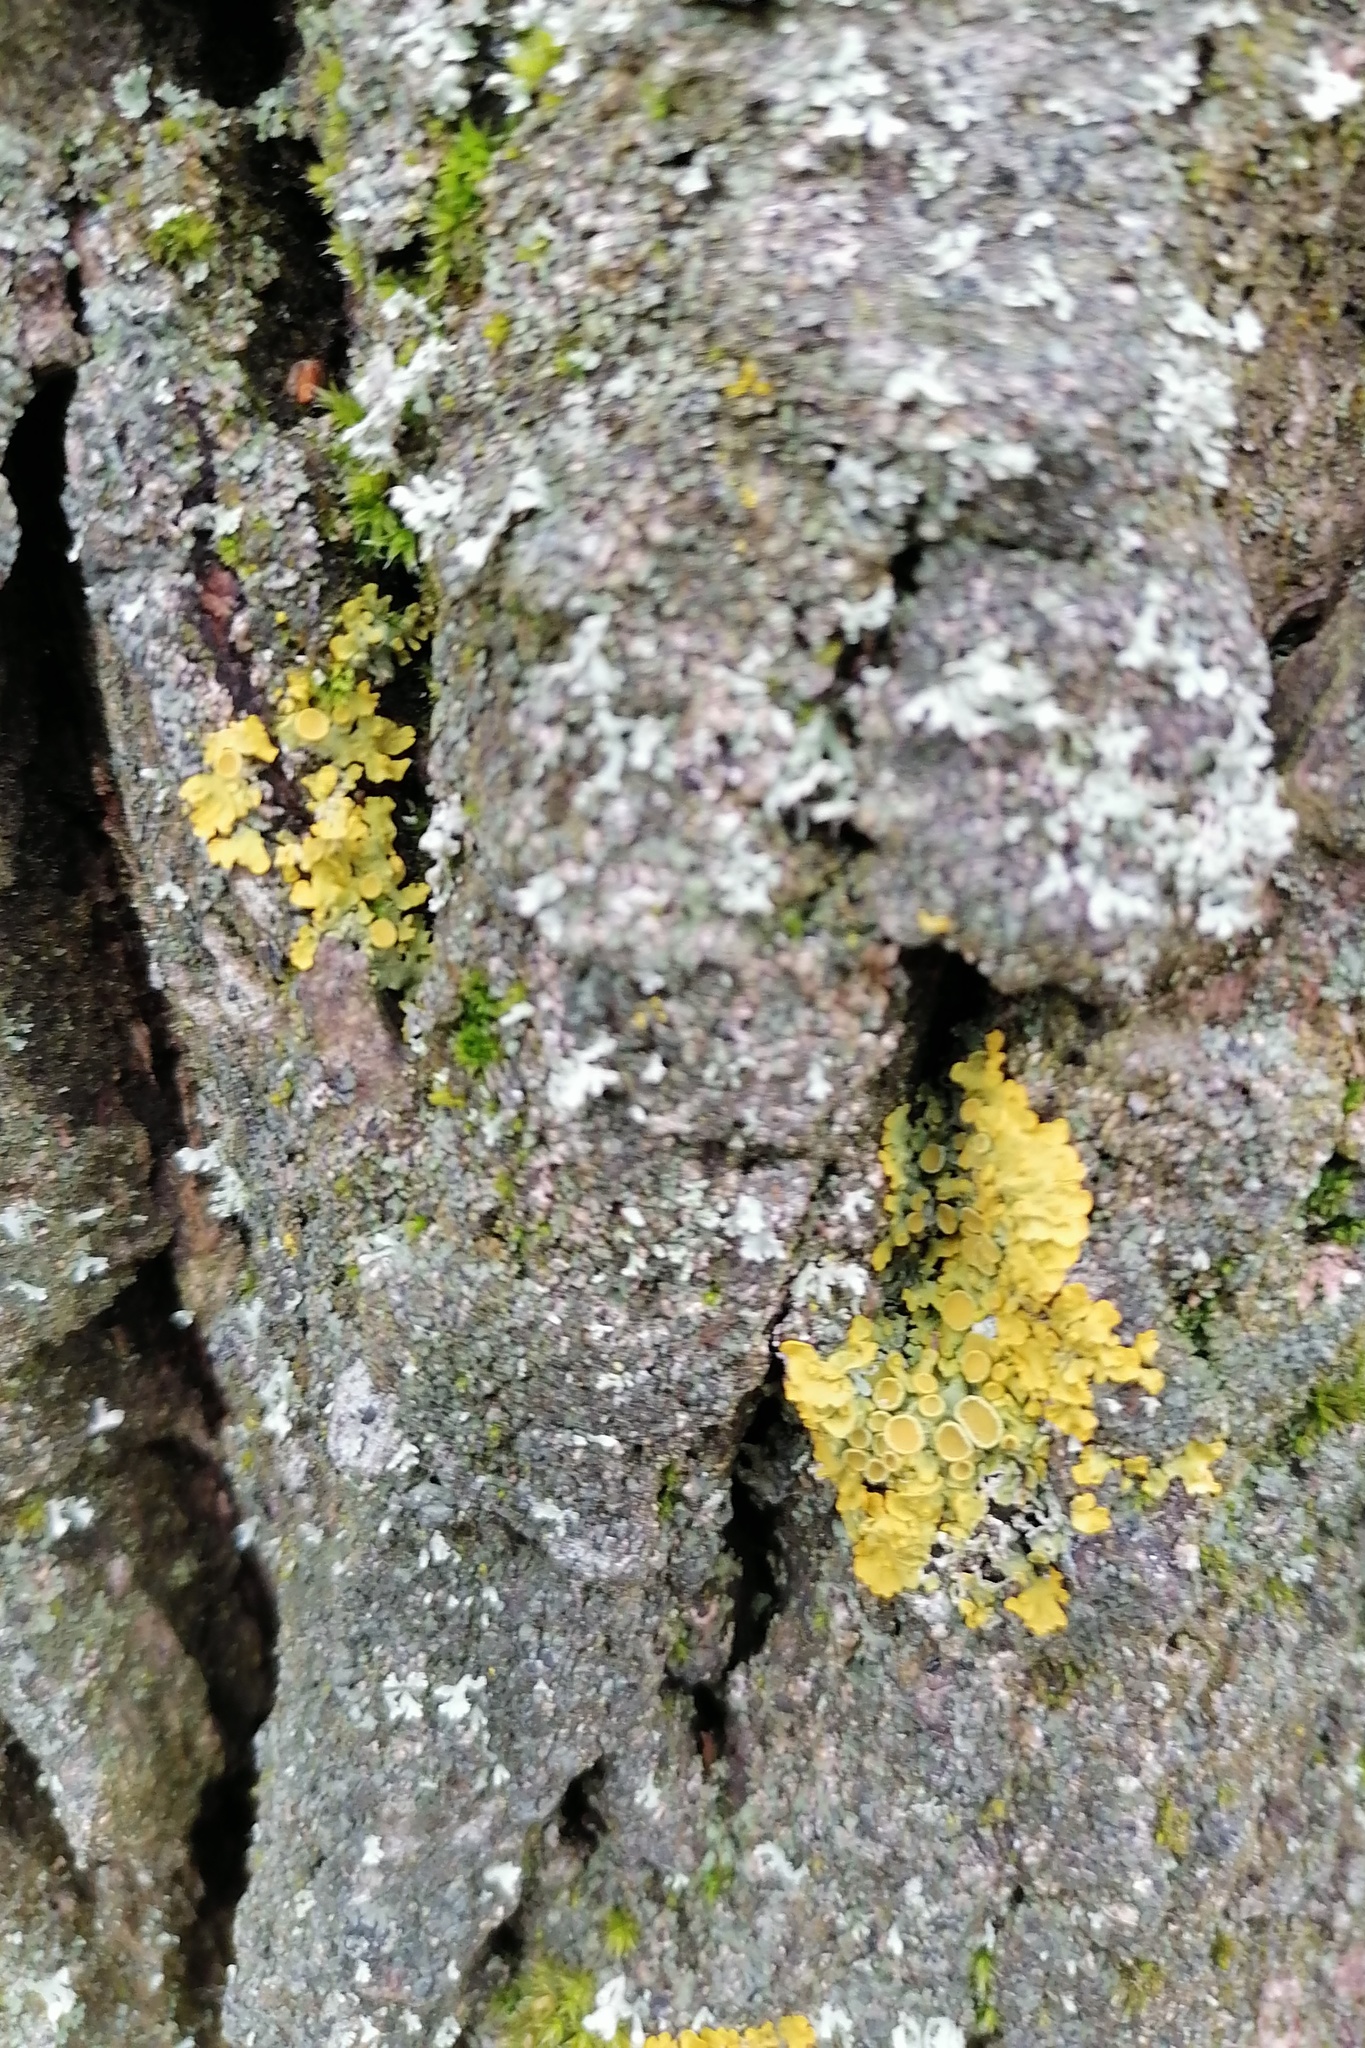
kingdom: Fungi
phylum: Ascomycota
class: Lecanoromycetes
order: Teloschistales
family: Teloschistaceae
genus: Xanthoria
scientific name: Xanthoria parietina
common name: Common orange lichen
